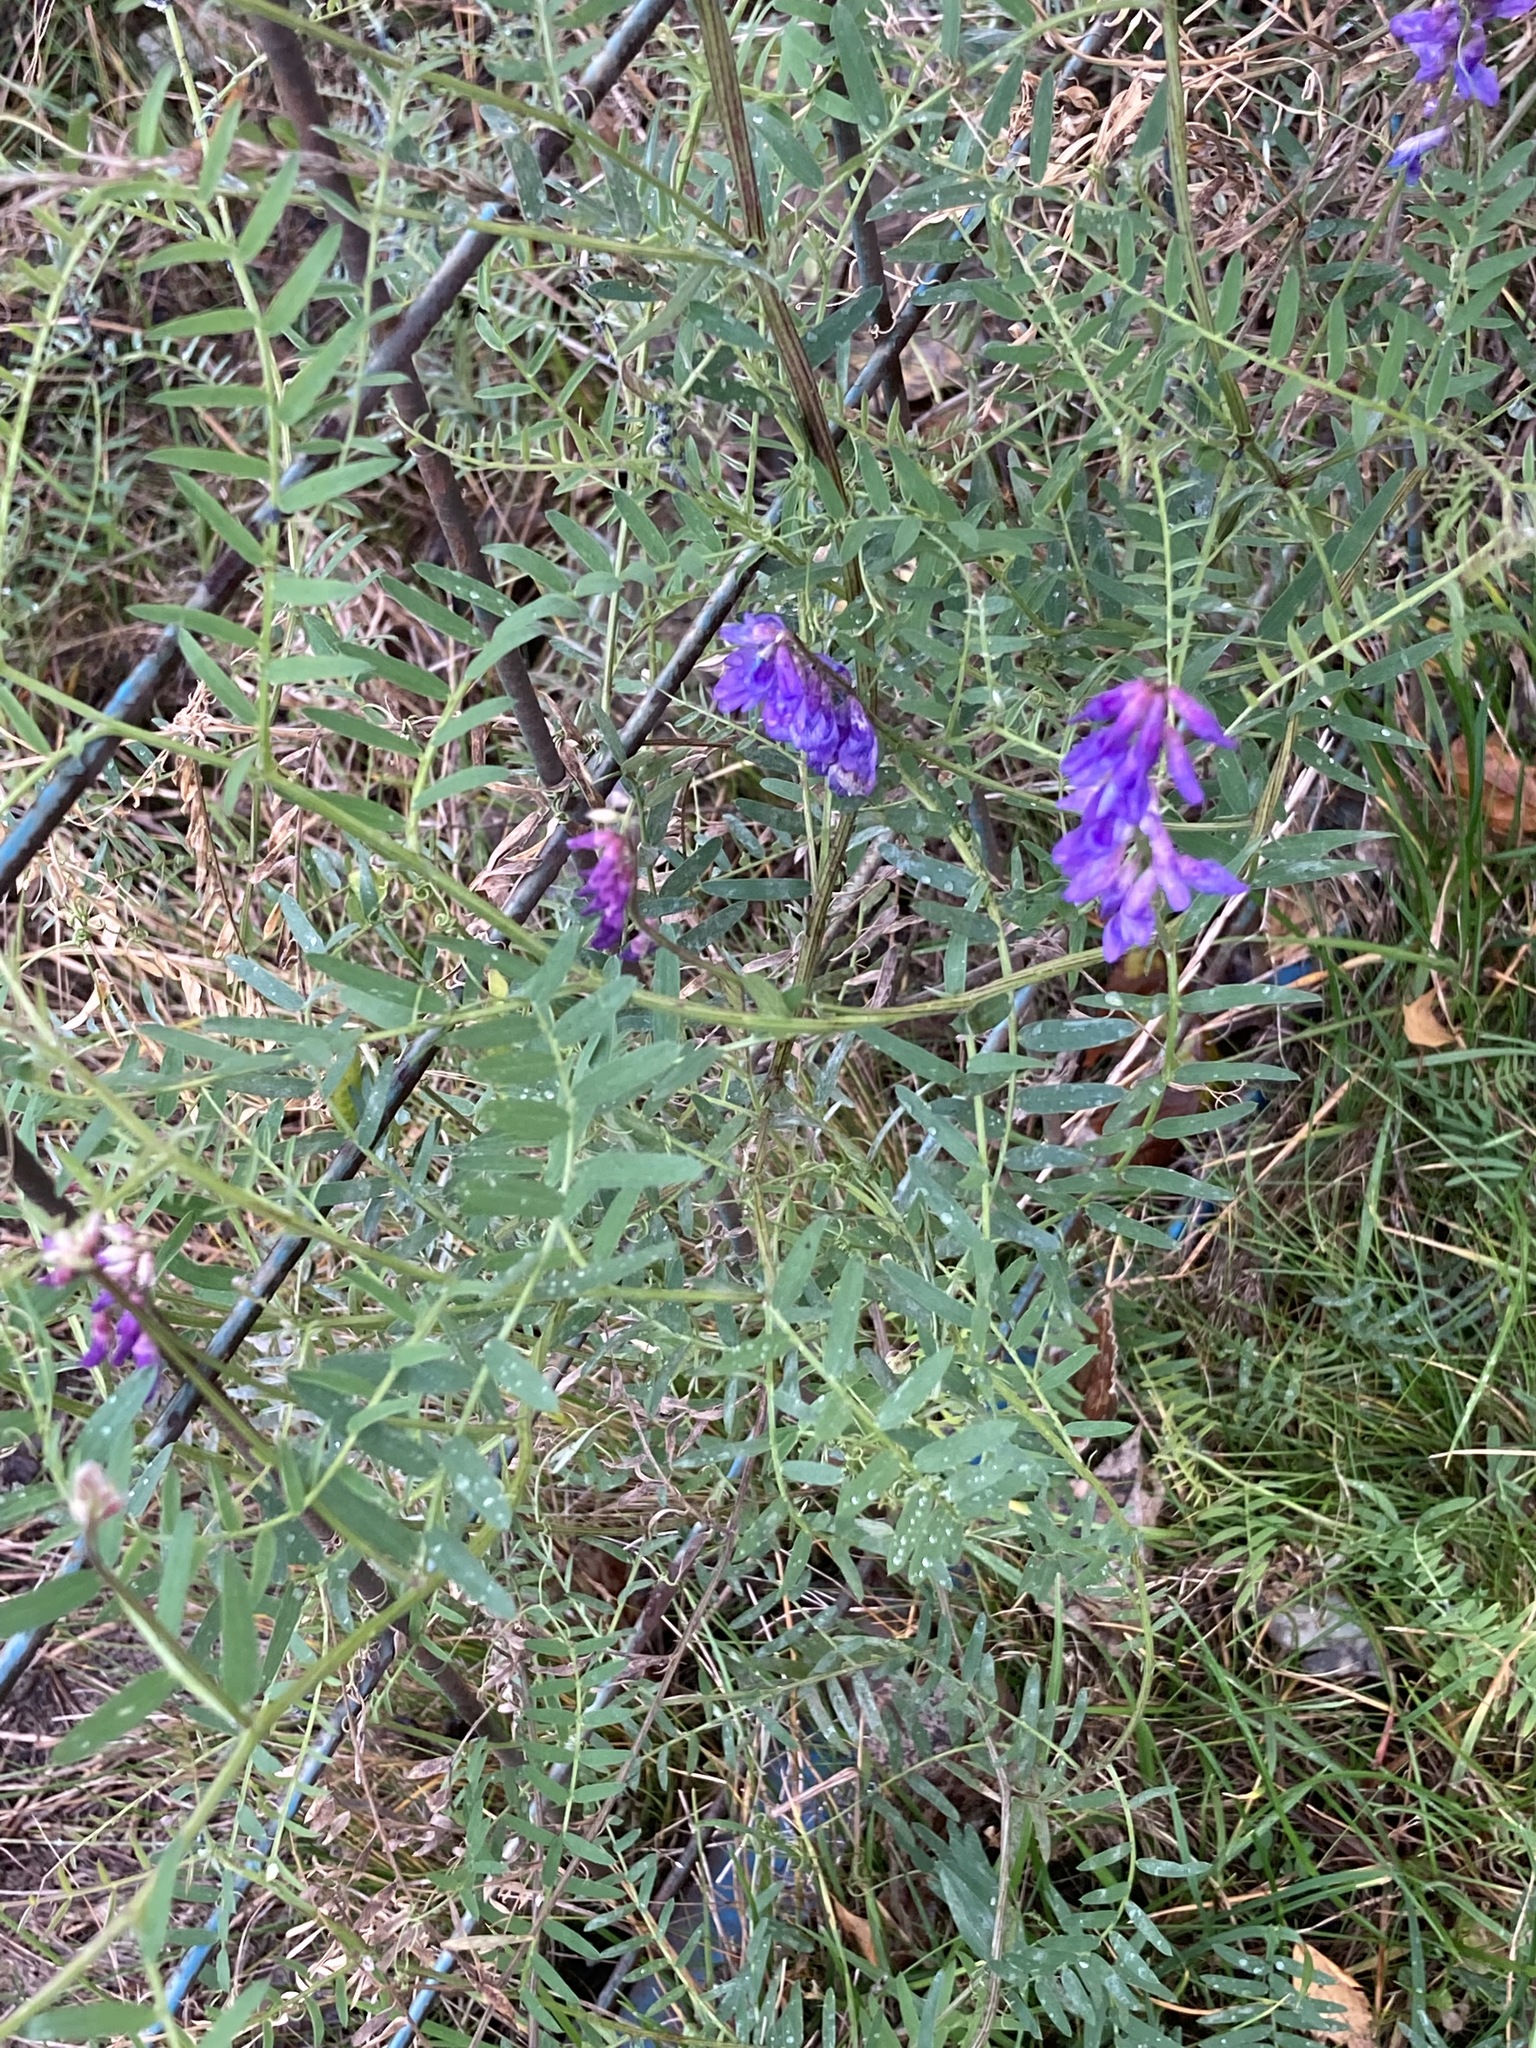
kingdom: Plantae
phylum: Tracheophyta
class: Magnoliopsida
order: Fabales
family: Fabaceae
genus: Vicia
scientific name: Vicia cracca
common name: Bird vetch
